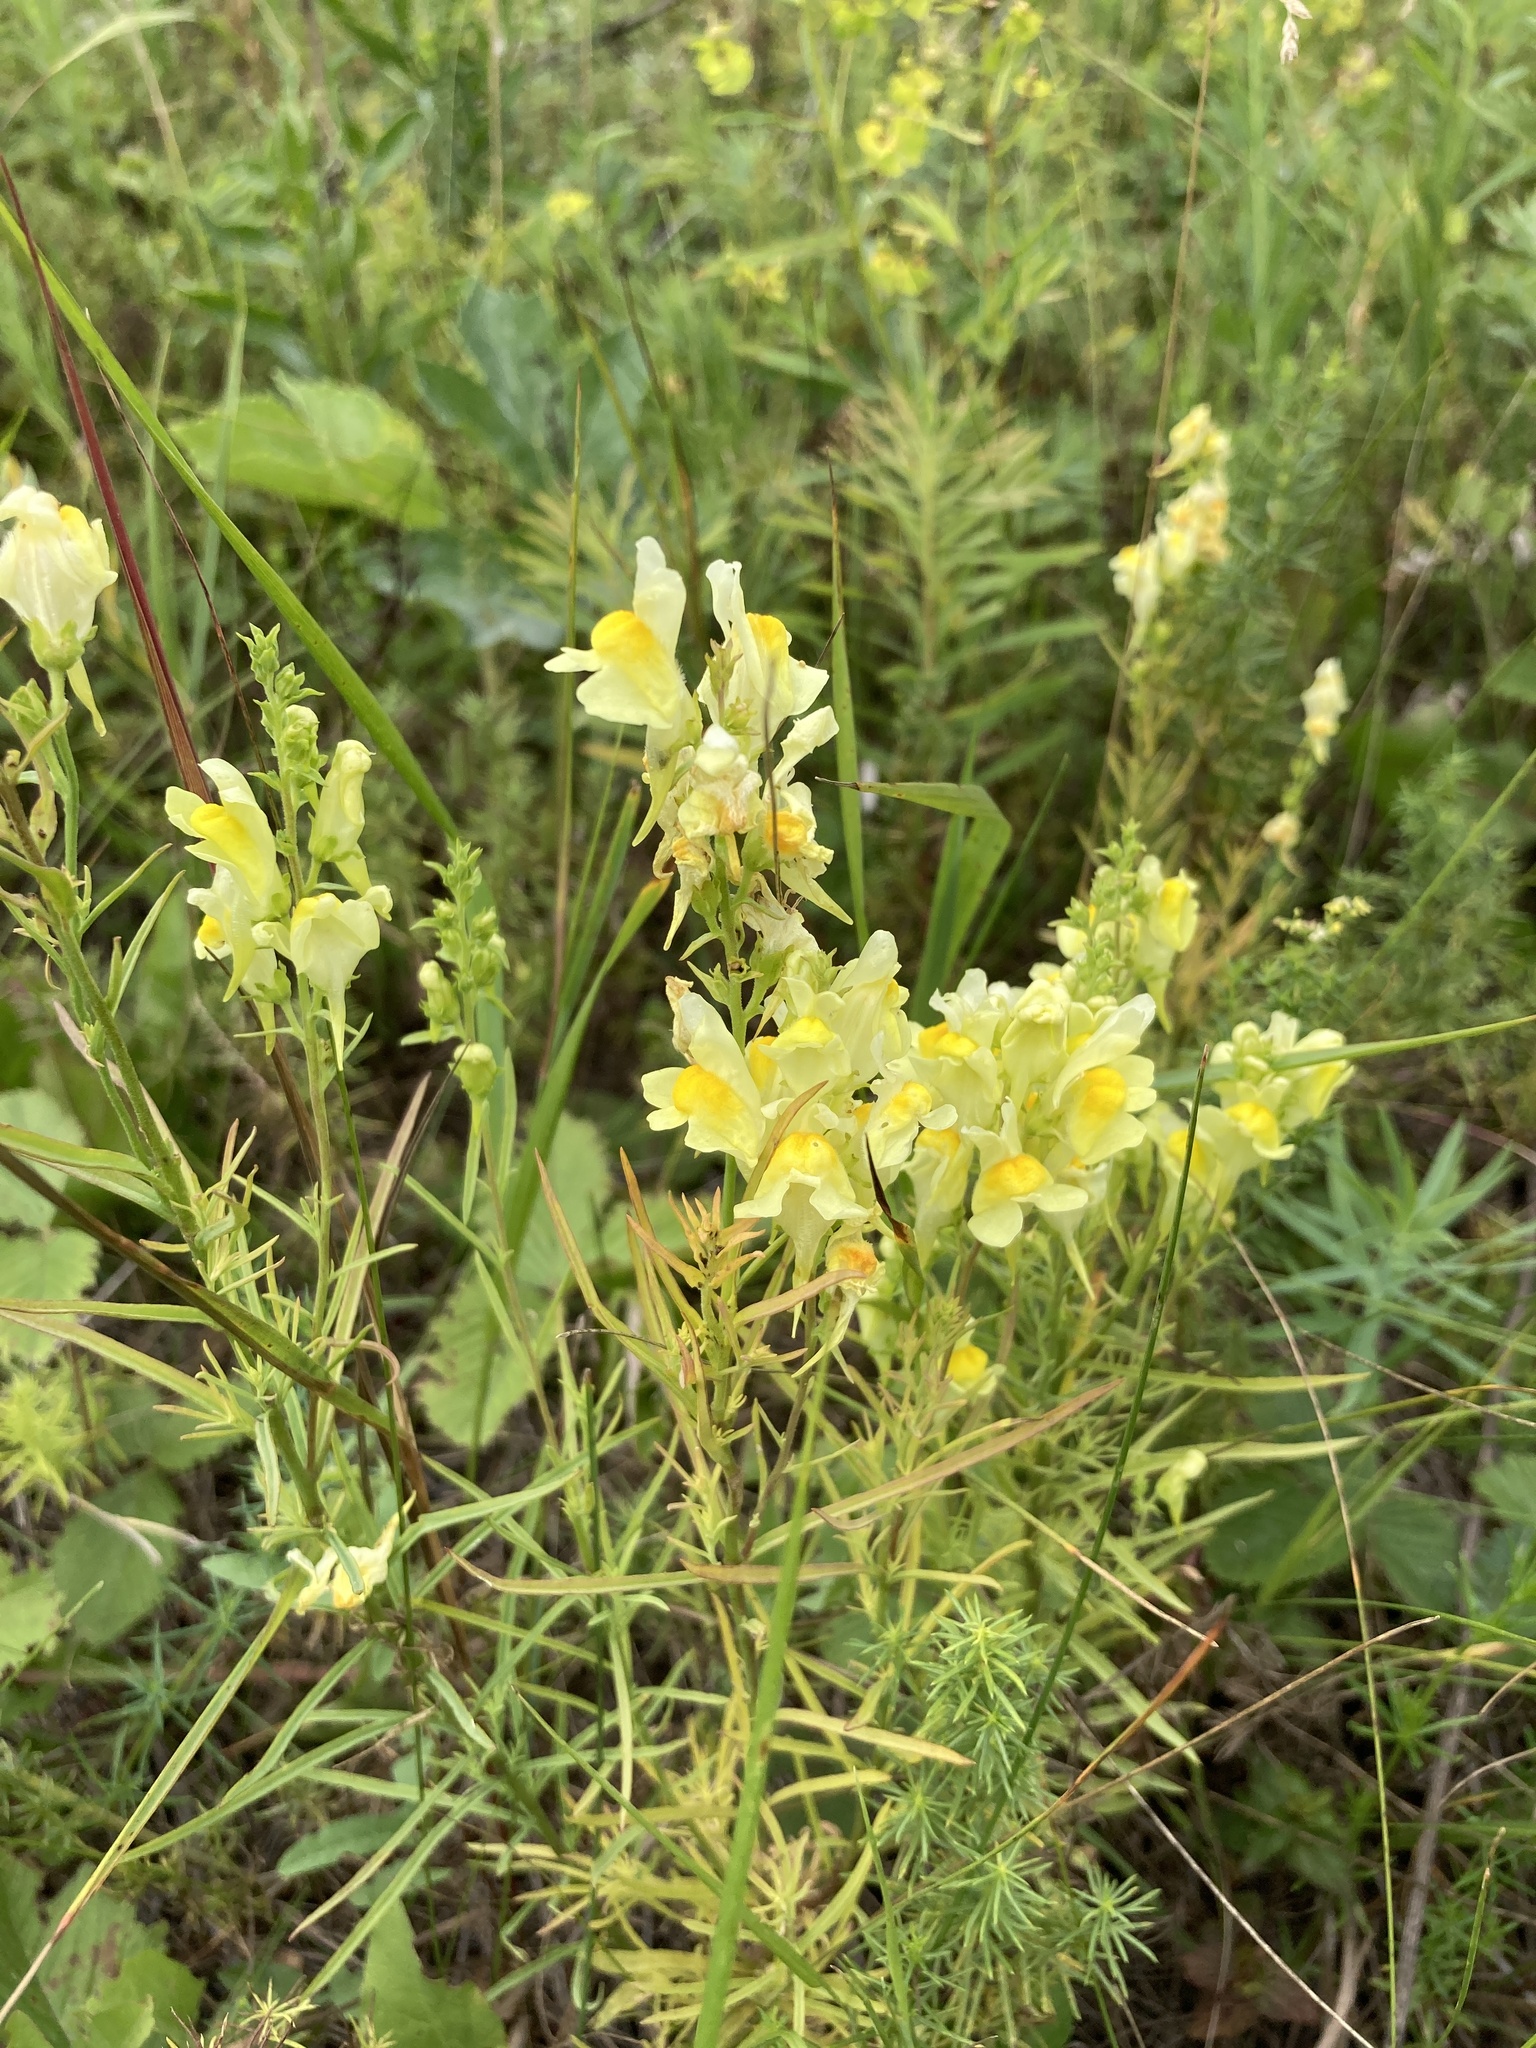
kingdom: Plantae
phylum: Tracheophyta
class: Magnoliopsida
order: Lamiales
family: Plantaginaceae
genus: Linaria
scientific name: Linaria vulgaris
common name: Butter and eggs
